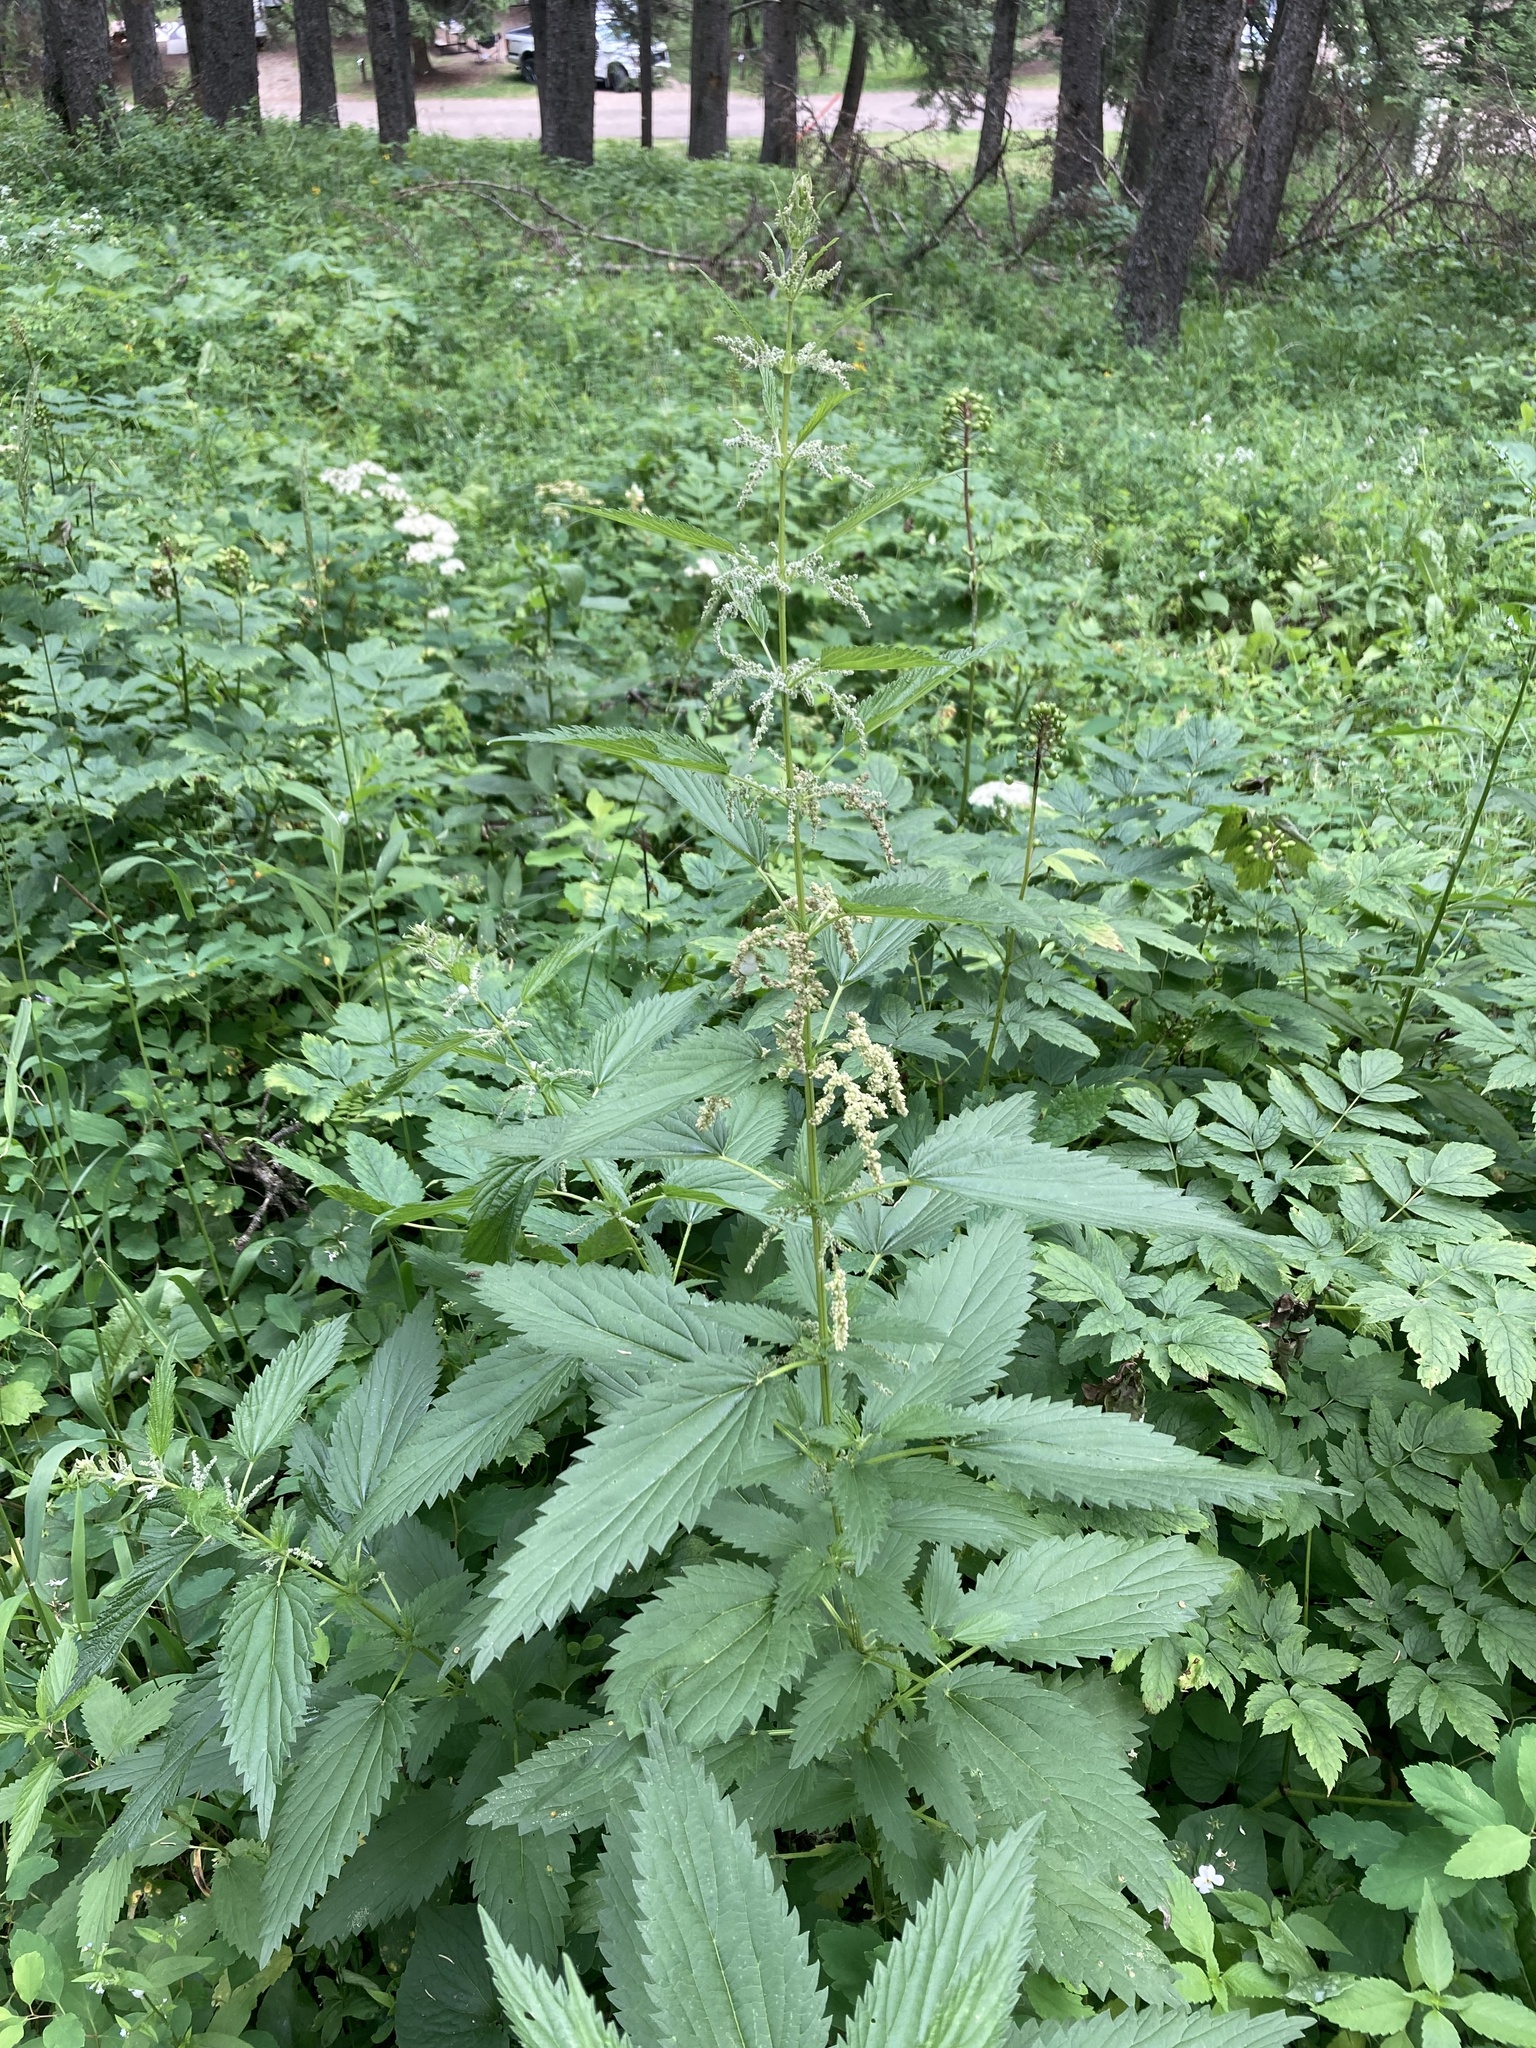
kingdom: Plantae
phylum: Tracheophyta
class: Magnoliopsida
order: Rosales
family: Urticaceae
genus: Urtica
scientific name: Urtica gracilis
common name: Slender stinging nettle
